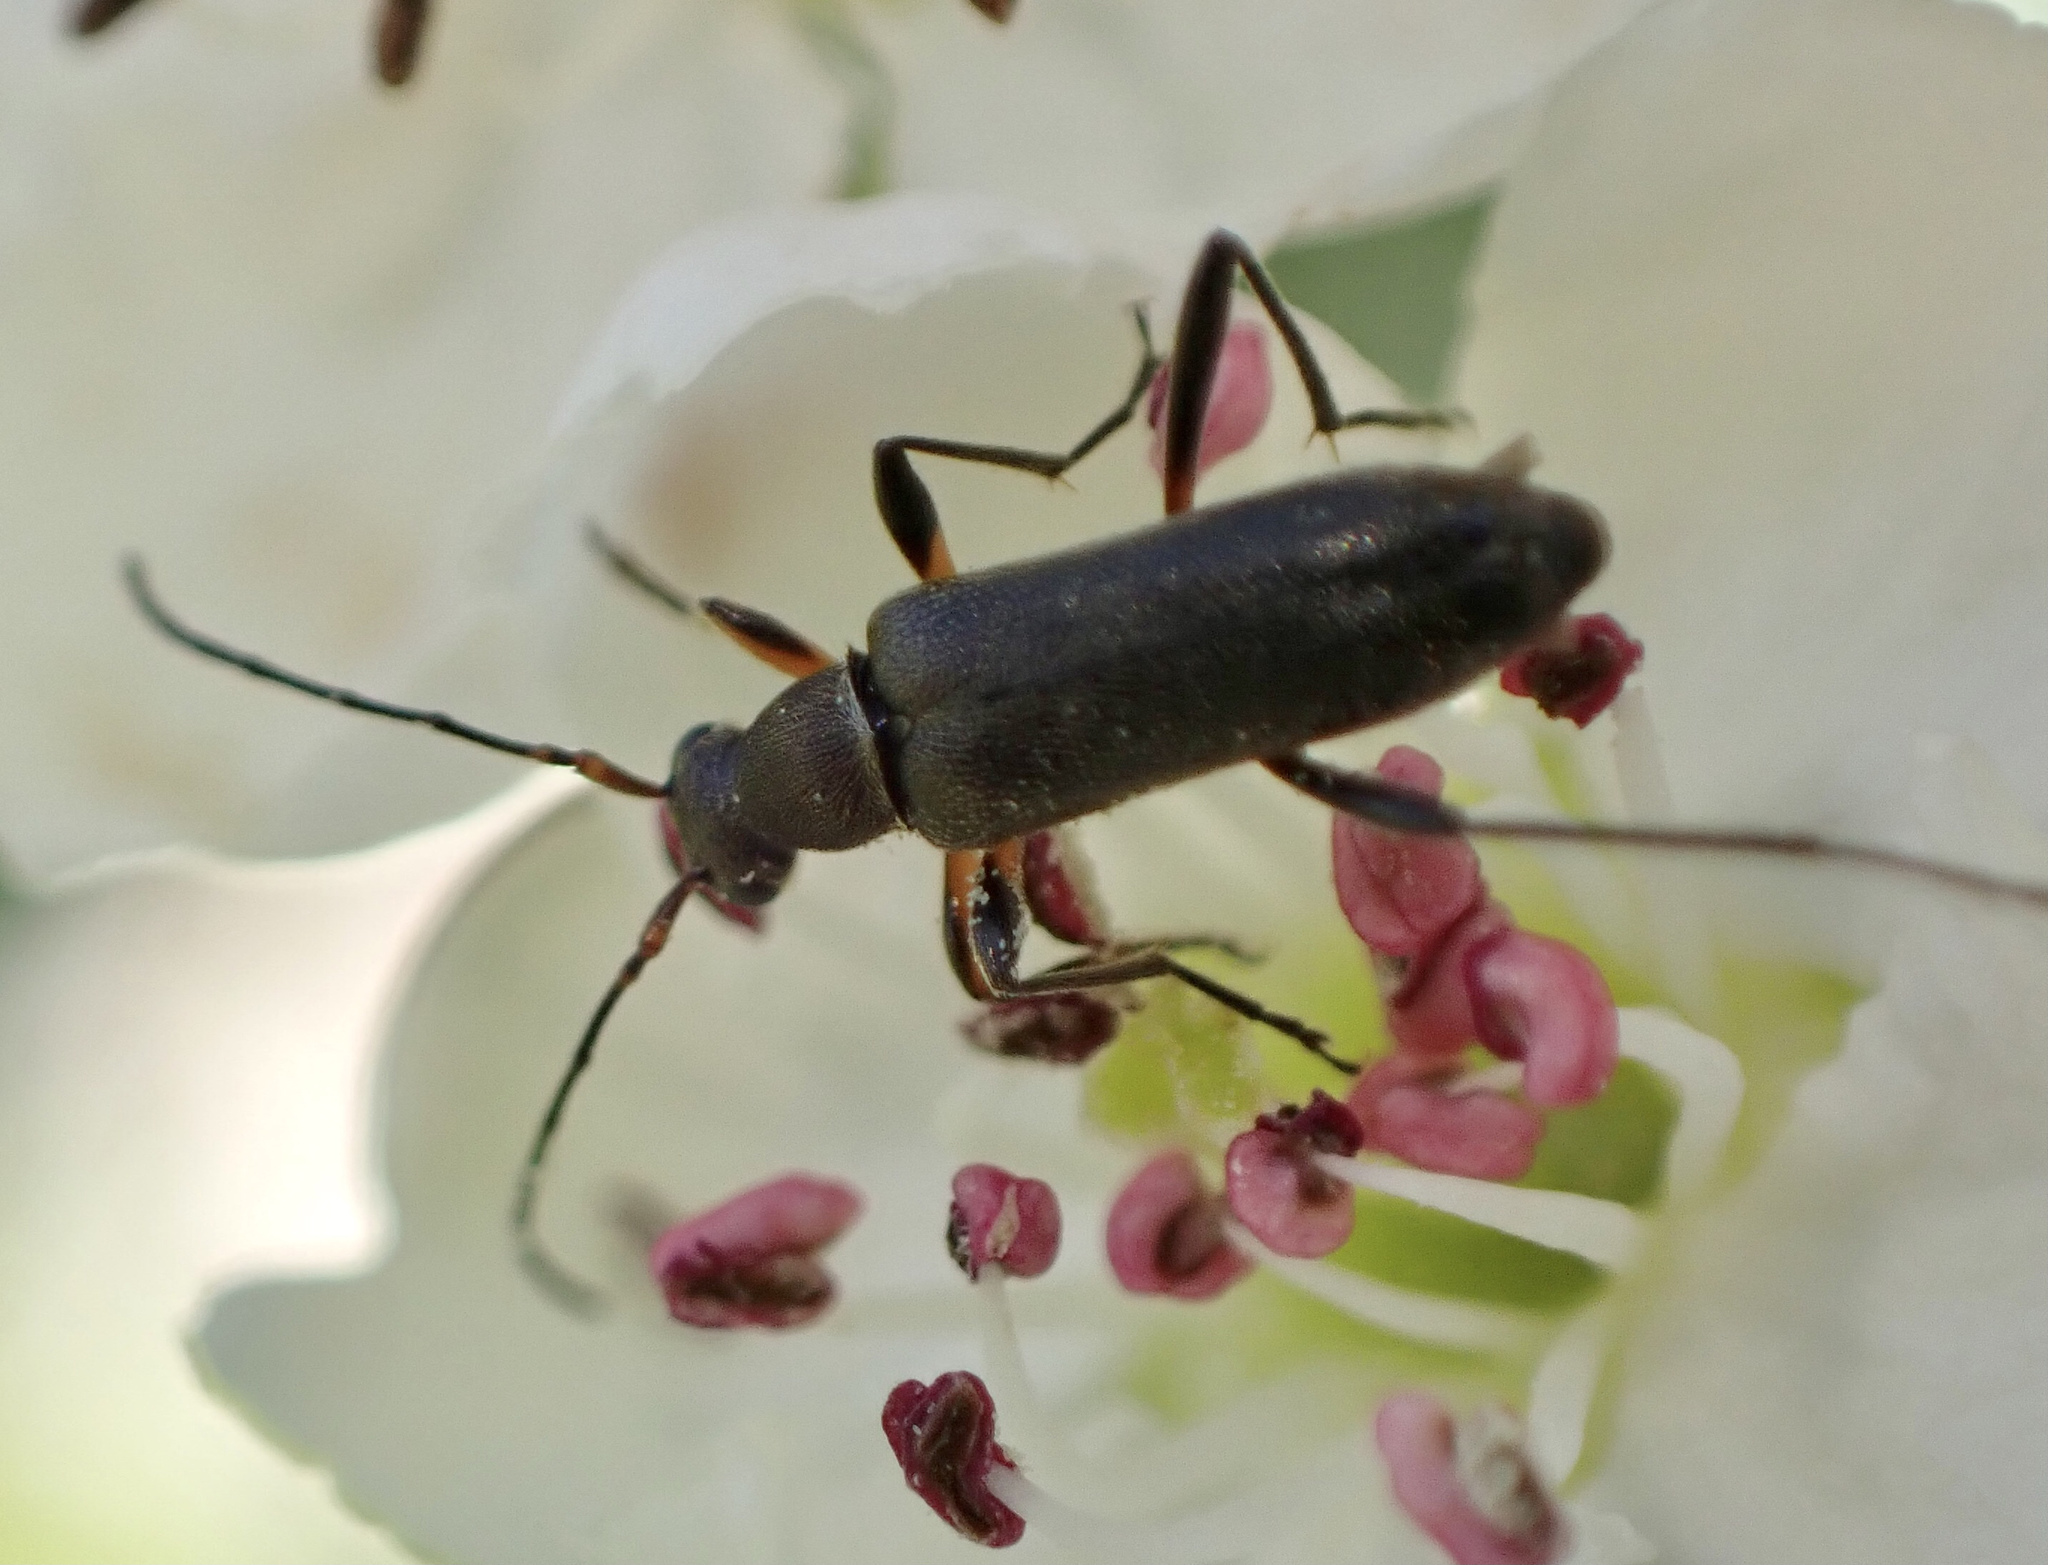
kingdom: Animalia
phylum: Arthropoda
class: Insecta
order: Coleoptera
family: Cerambycidae
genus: Grammoptera
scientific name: Grammoptera ruficornis
